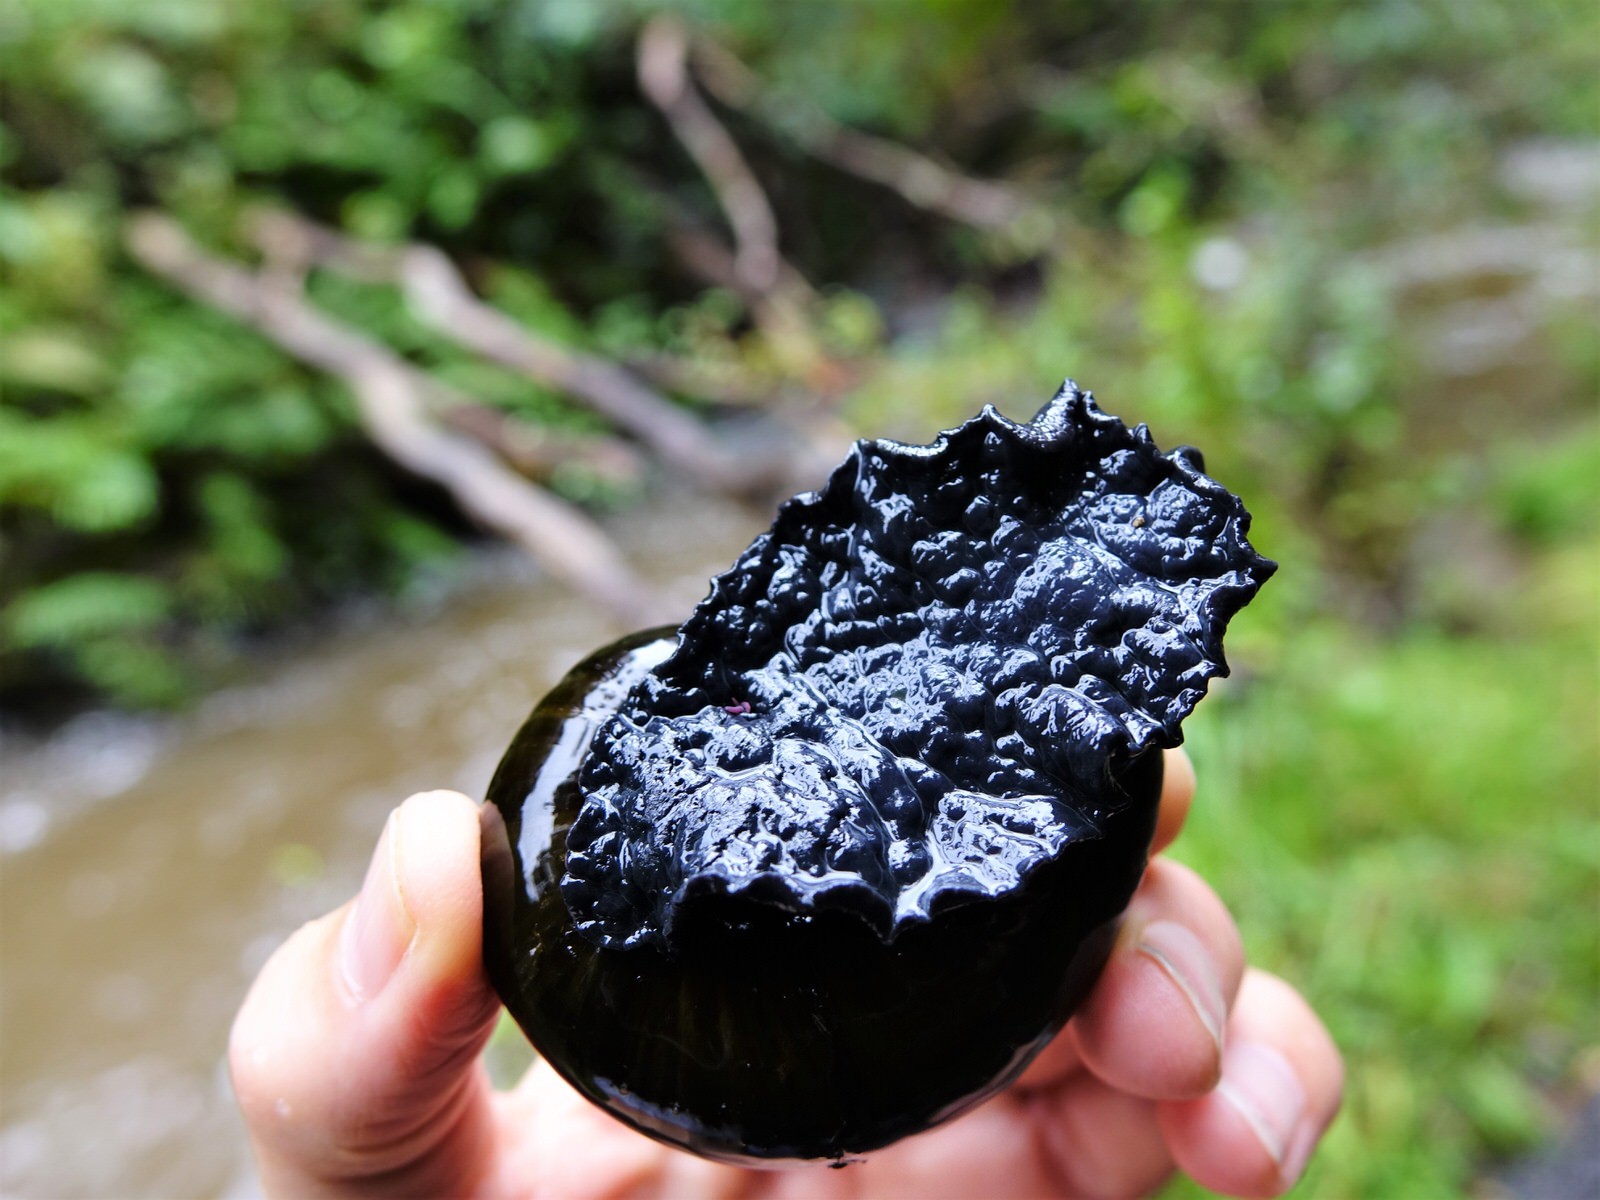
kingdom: Animalia
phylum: Mollusca
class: Gastropoda
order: Stylommatophora
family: Rhytididae
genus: Paryphanta
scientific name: Paryphanta busbyi
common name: Kauri snail
